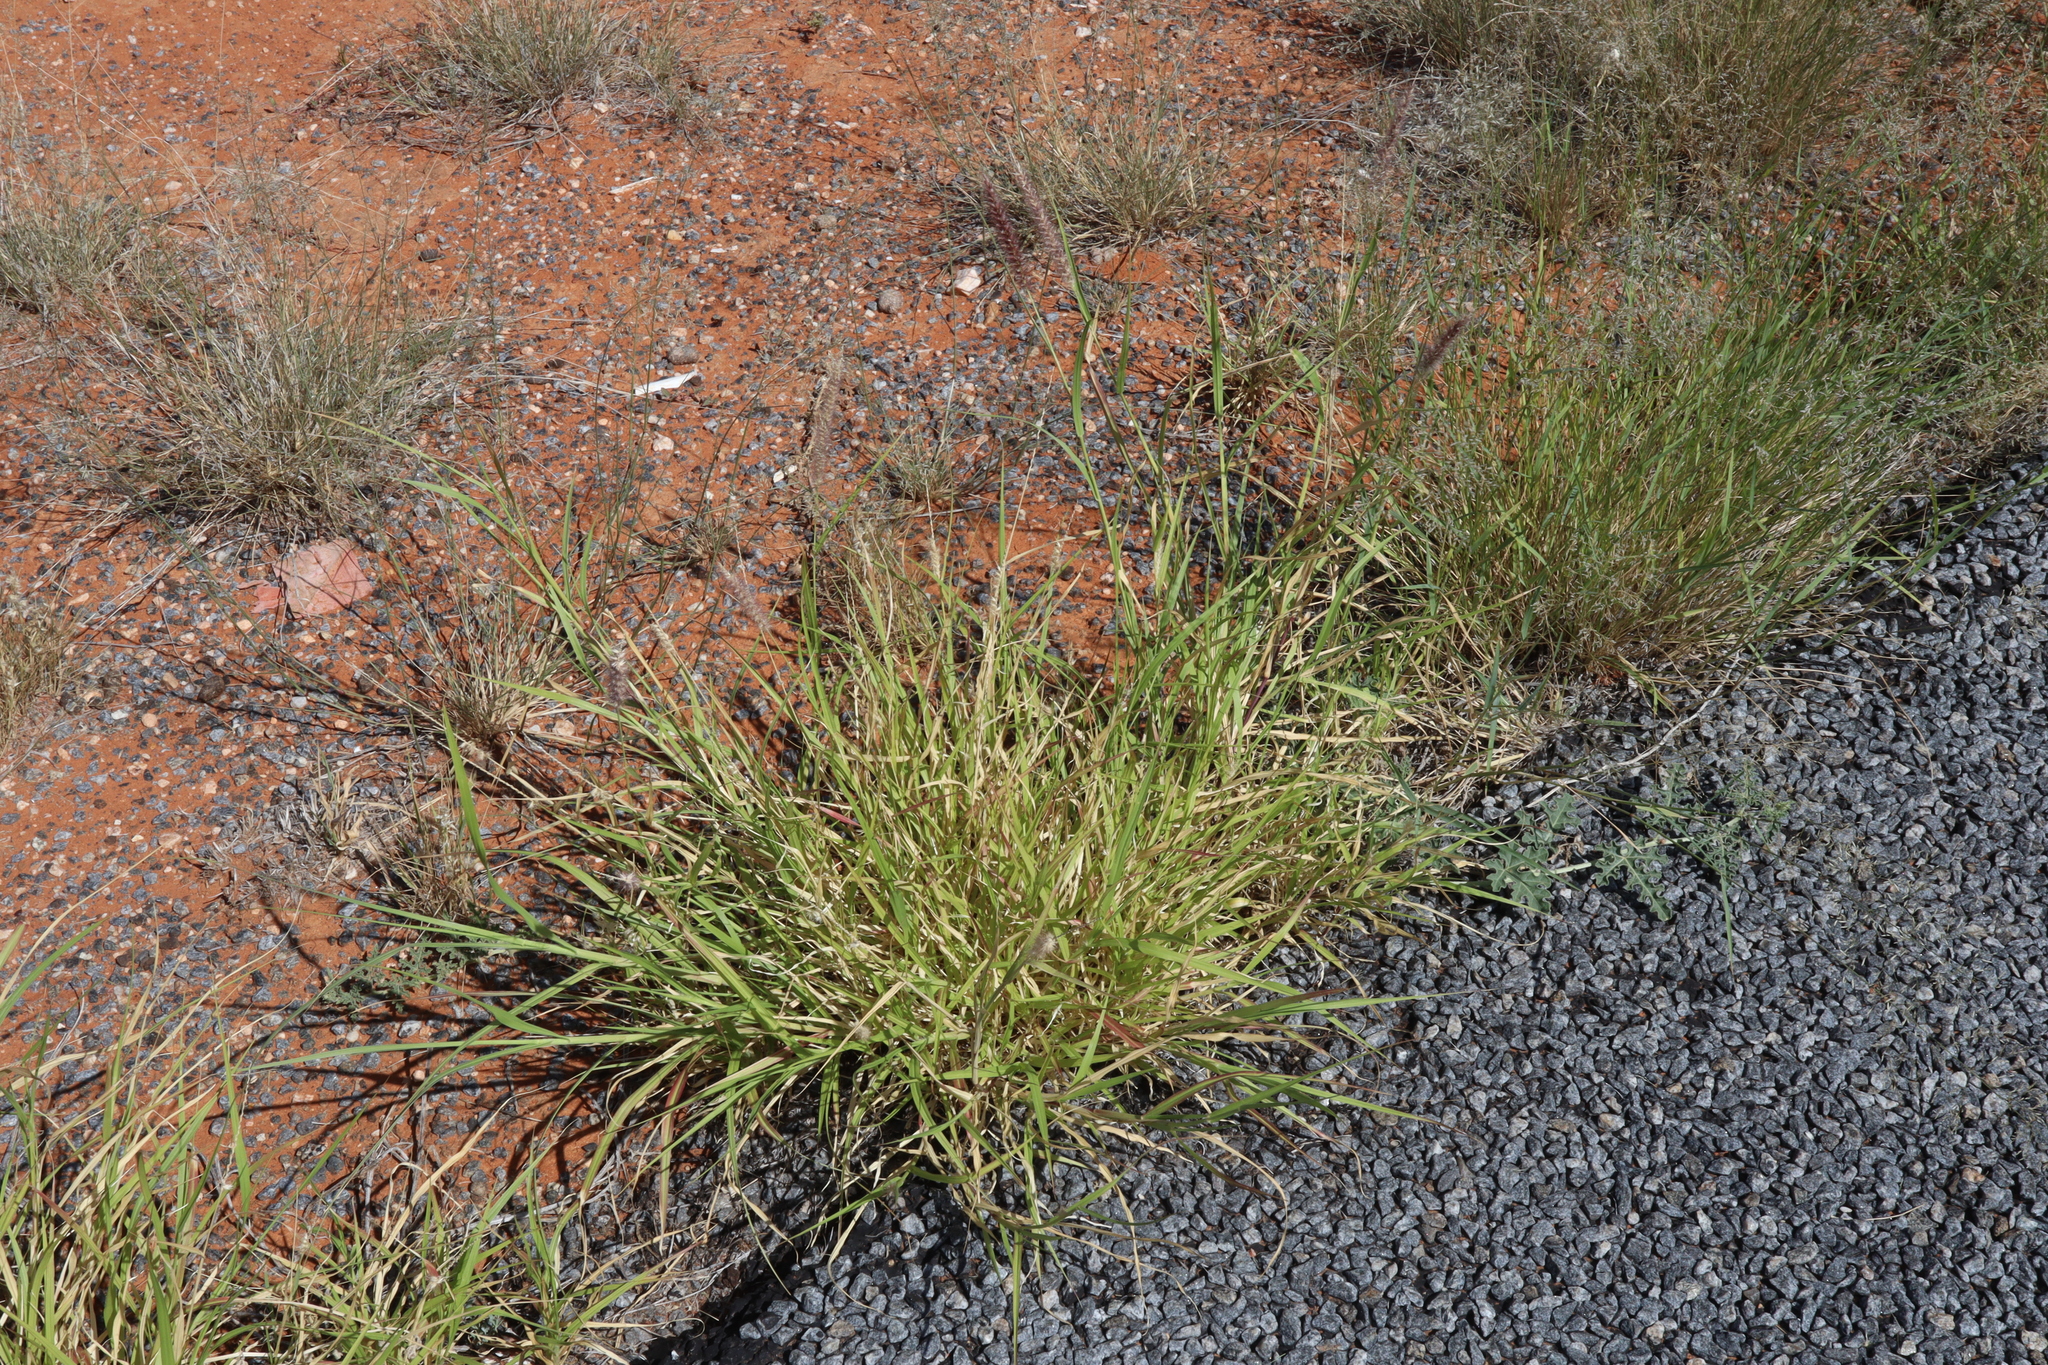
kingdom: Plantae
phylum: Tracheophyta
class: Liliopsida
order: Poales
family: Poaceae
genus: Cenchrus
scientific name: Cenchrus ciliaris
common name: Buffelgrass
